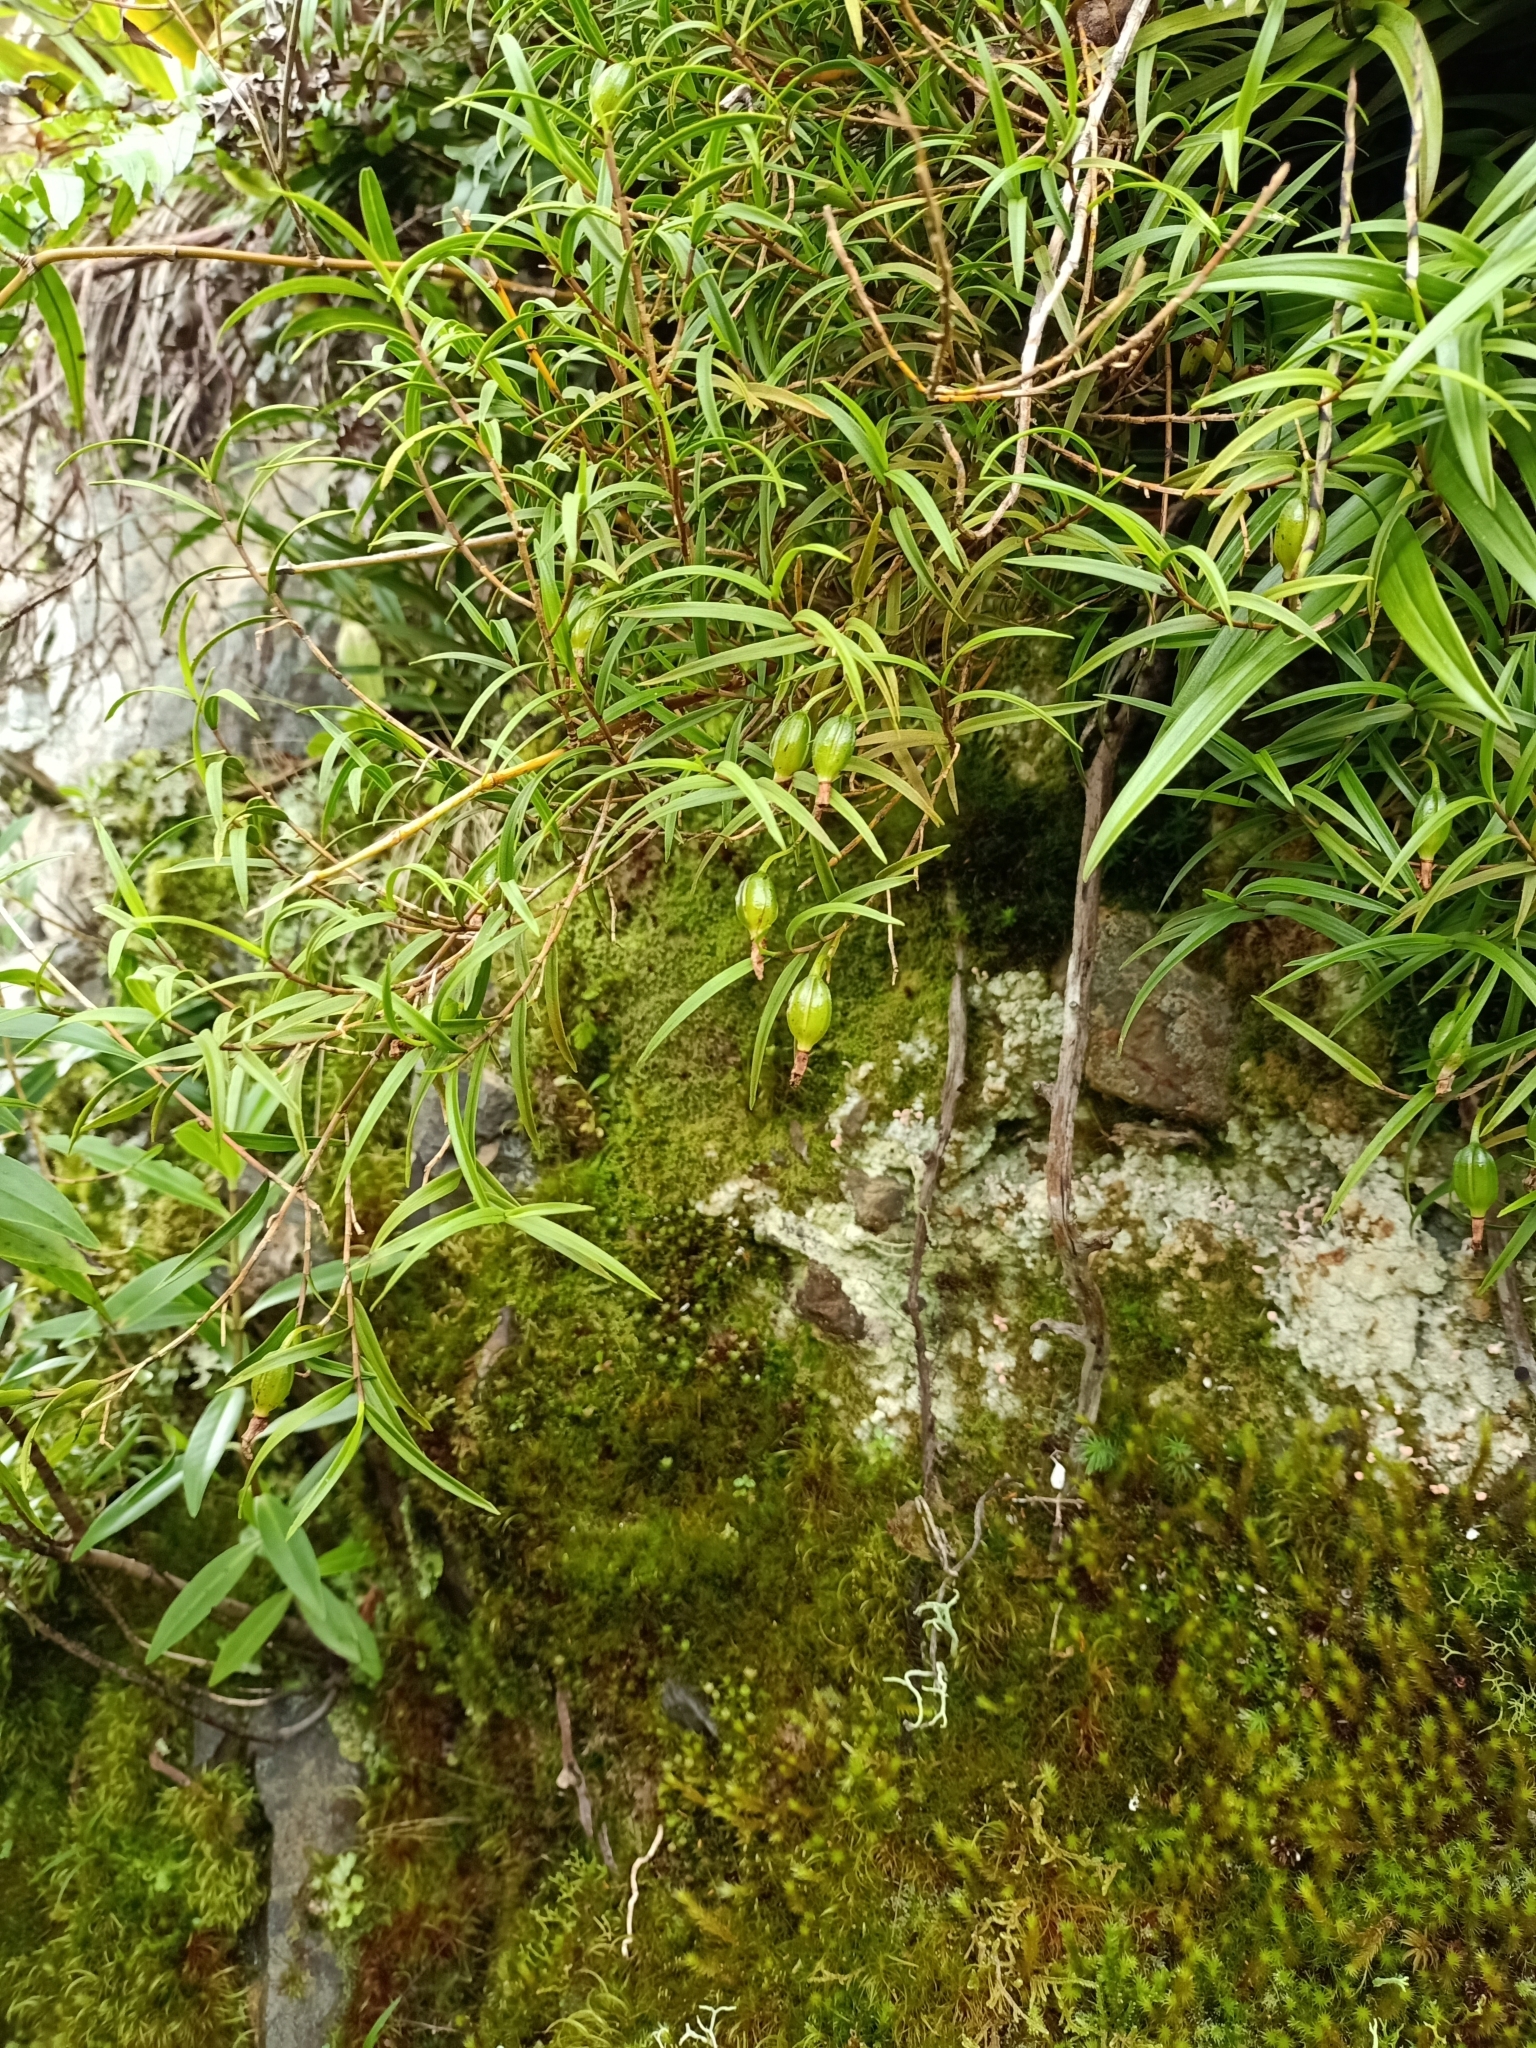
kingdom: Plantae
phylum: Tracheophyta
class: Liliopsida
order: Asparagales
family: Orchidaceae
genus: Dendrobium
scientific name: Dendrobium cunninghamii
